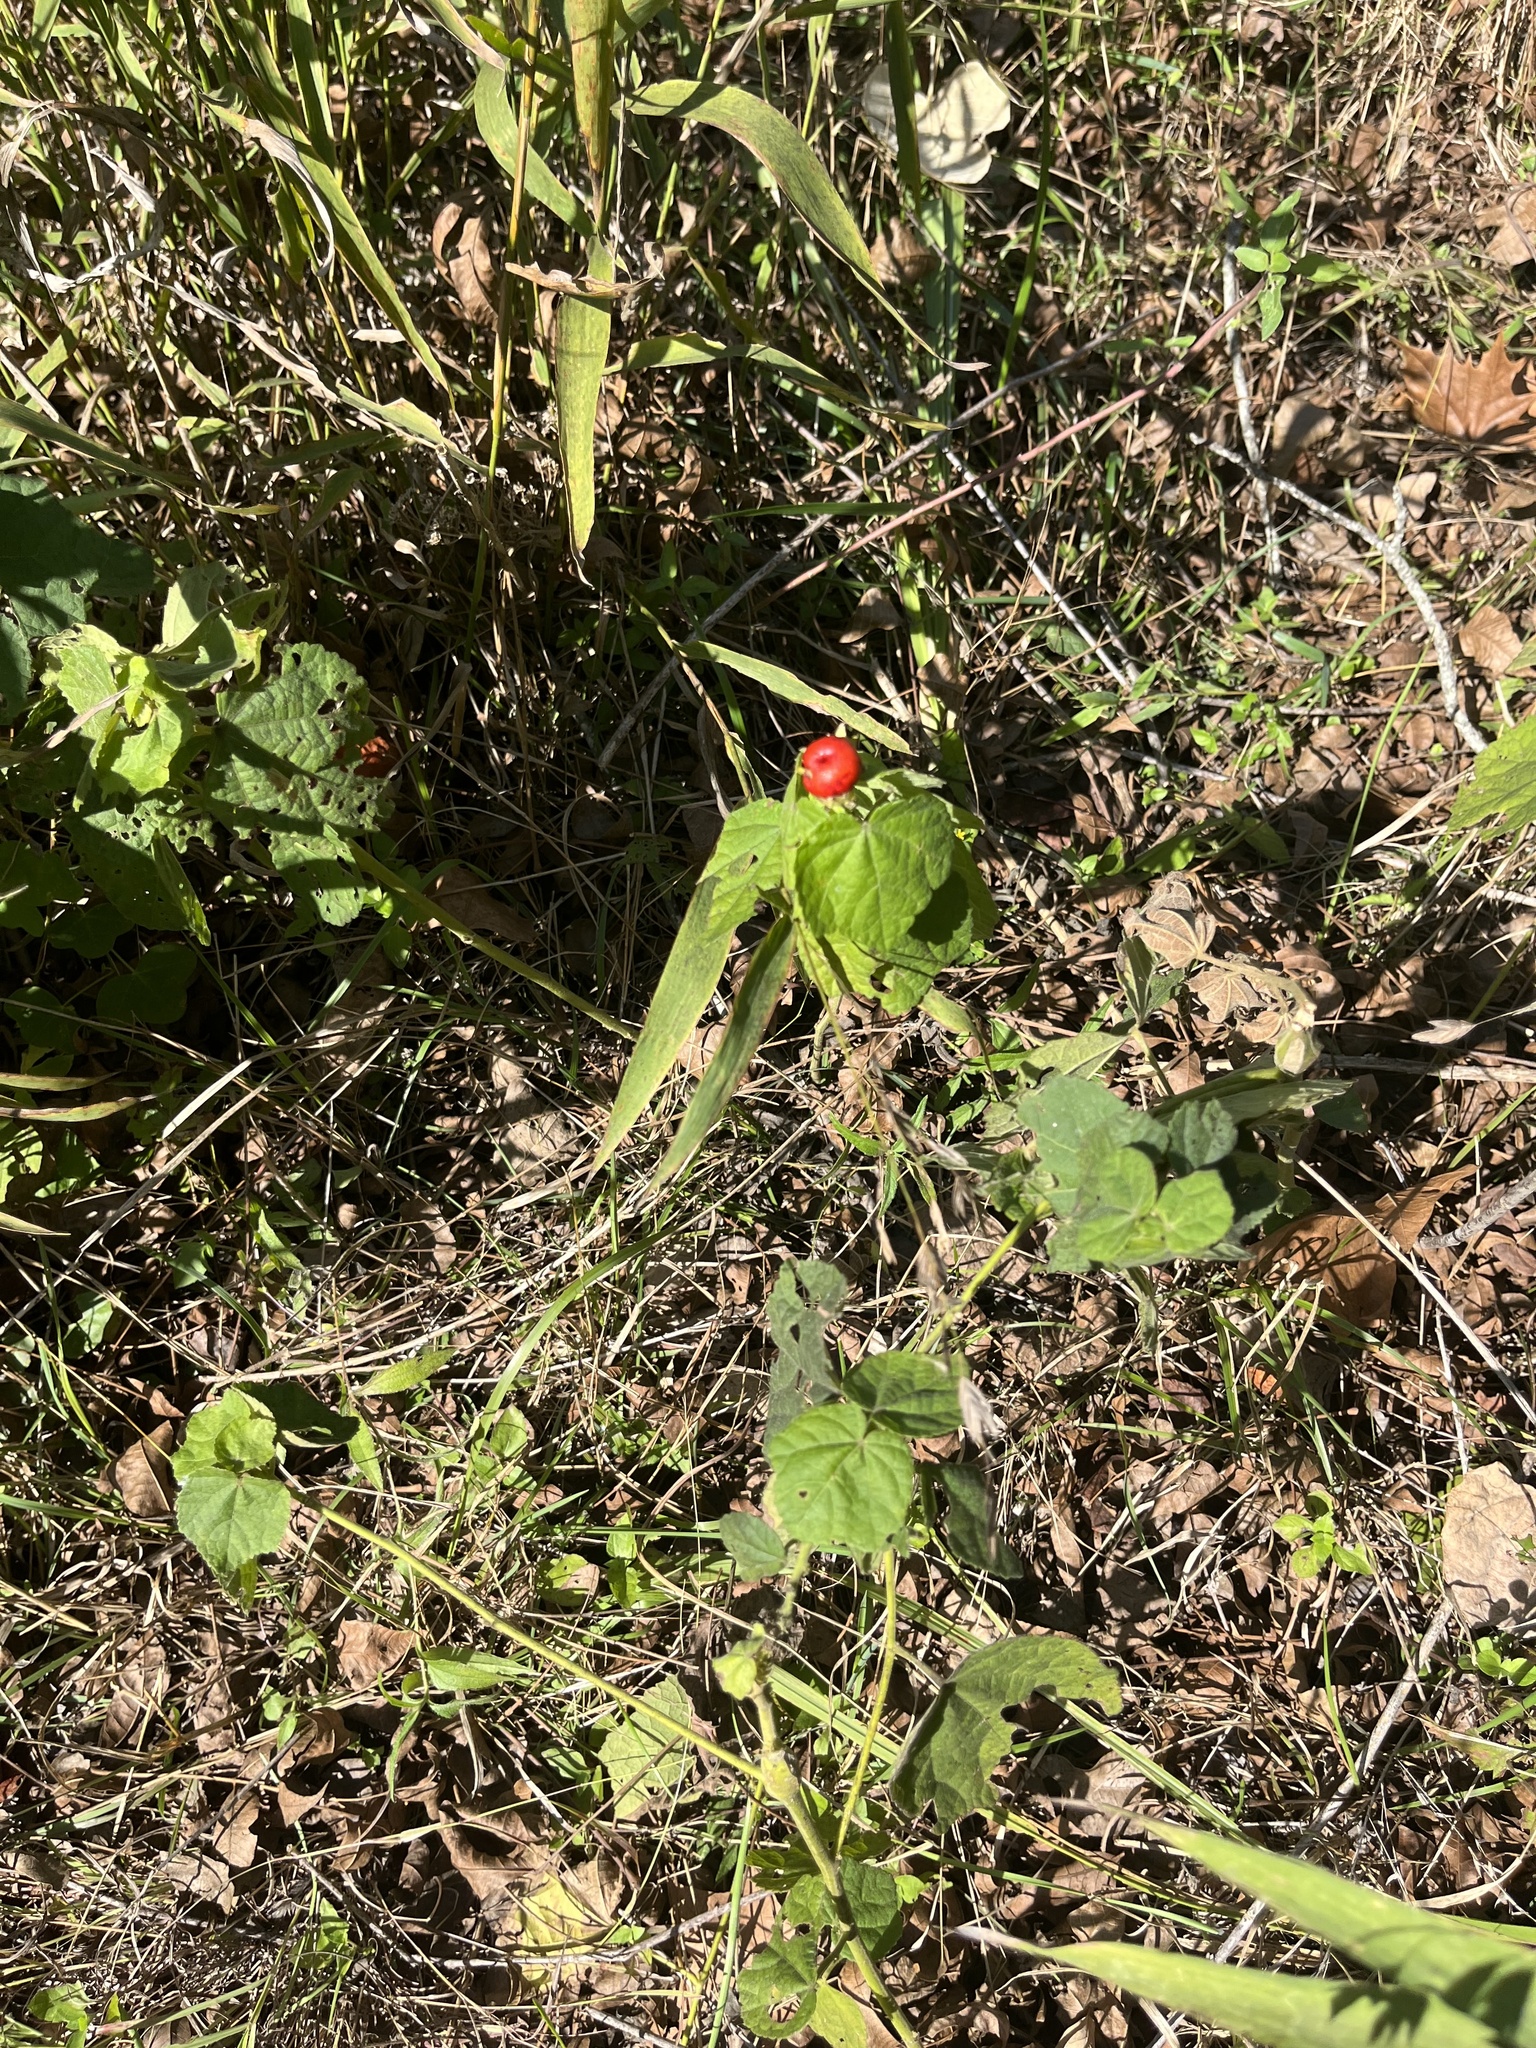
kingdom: Plantae
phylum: Tracheophyta
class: Magnoliopsida
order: Malvales
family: Malvaceae
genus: Malvaviscus
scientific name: Malvaviscus arboreus
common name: Wax mallow
